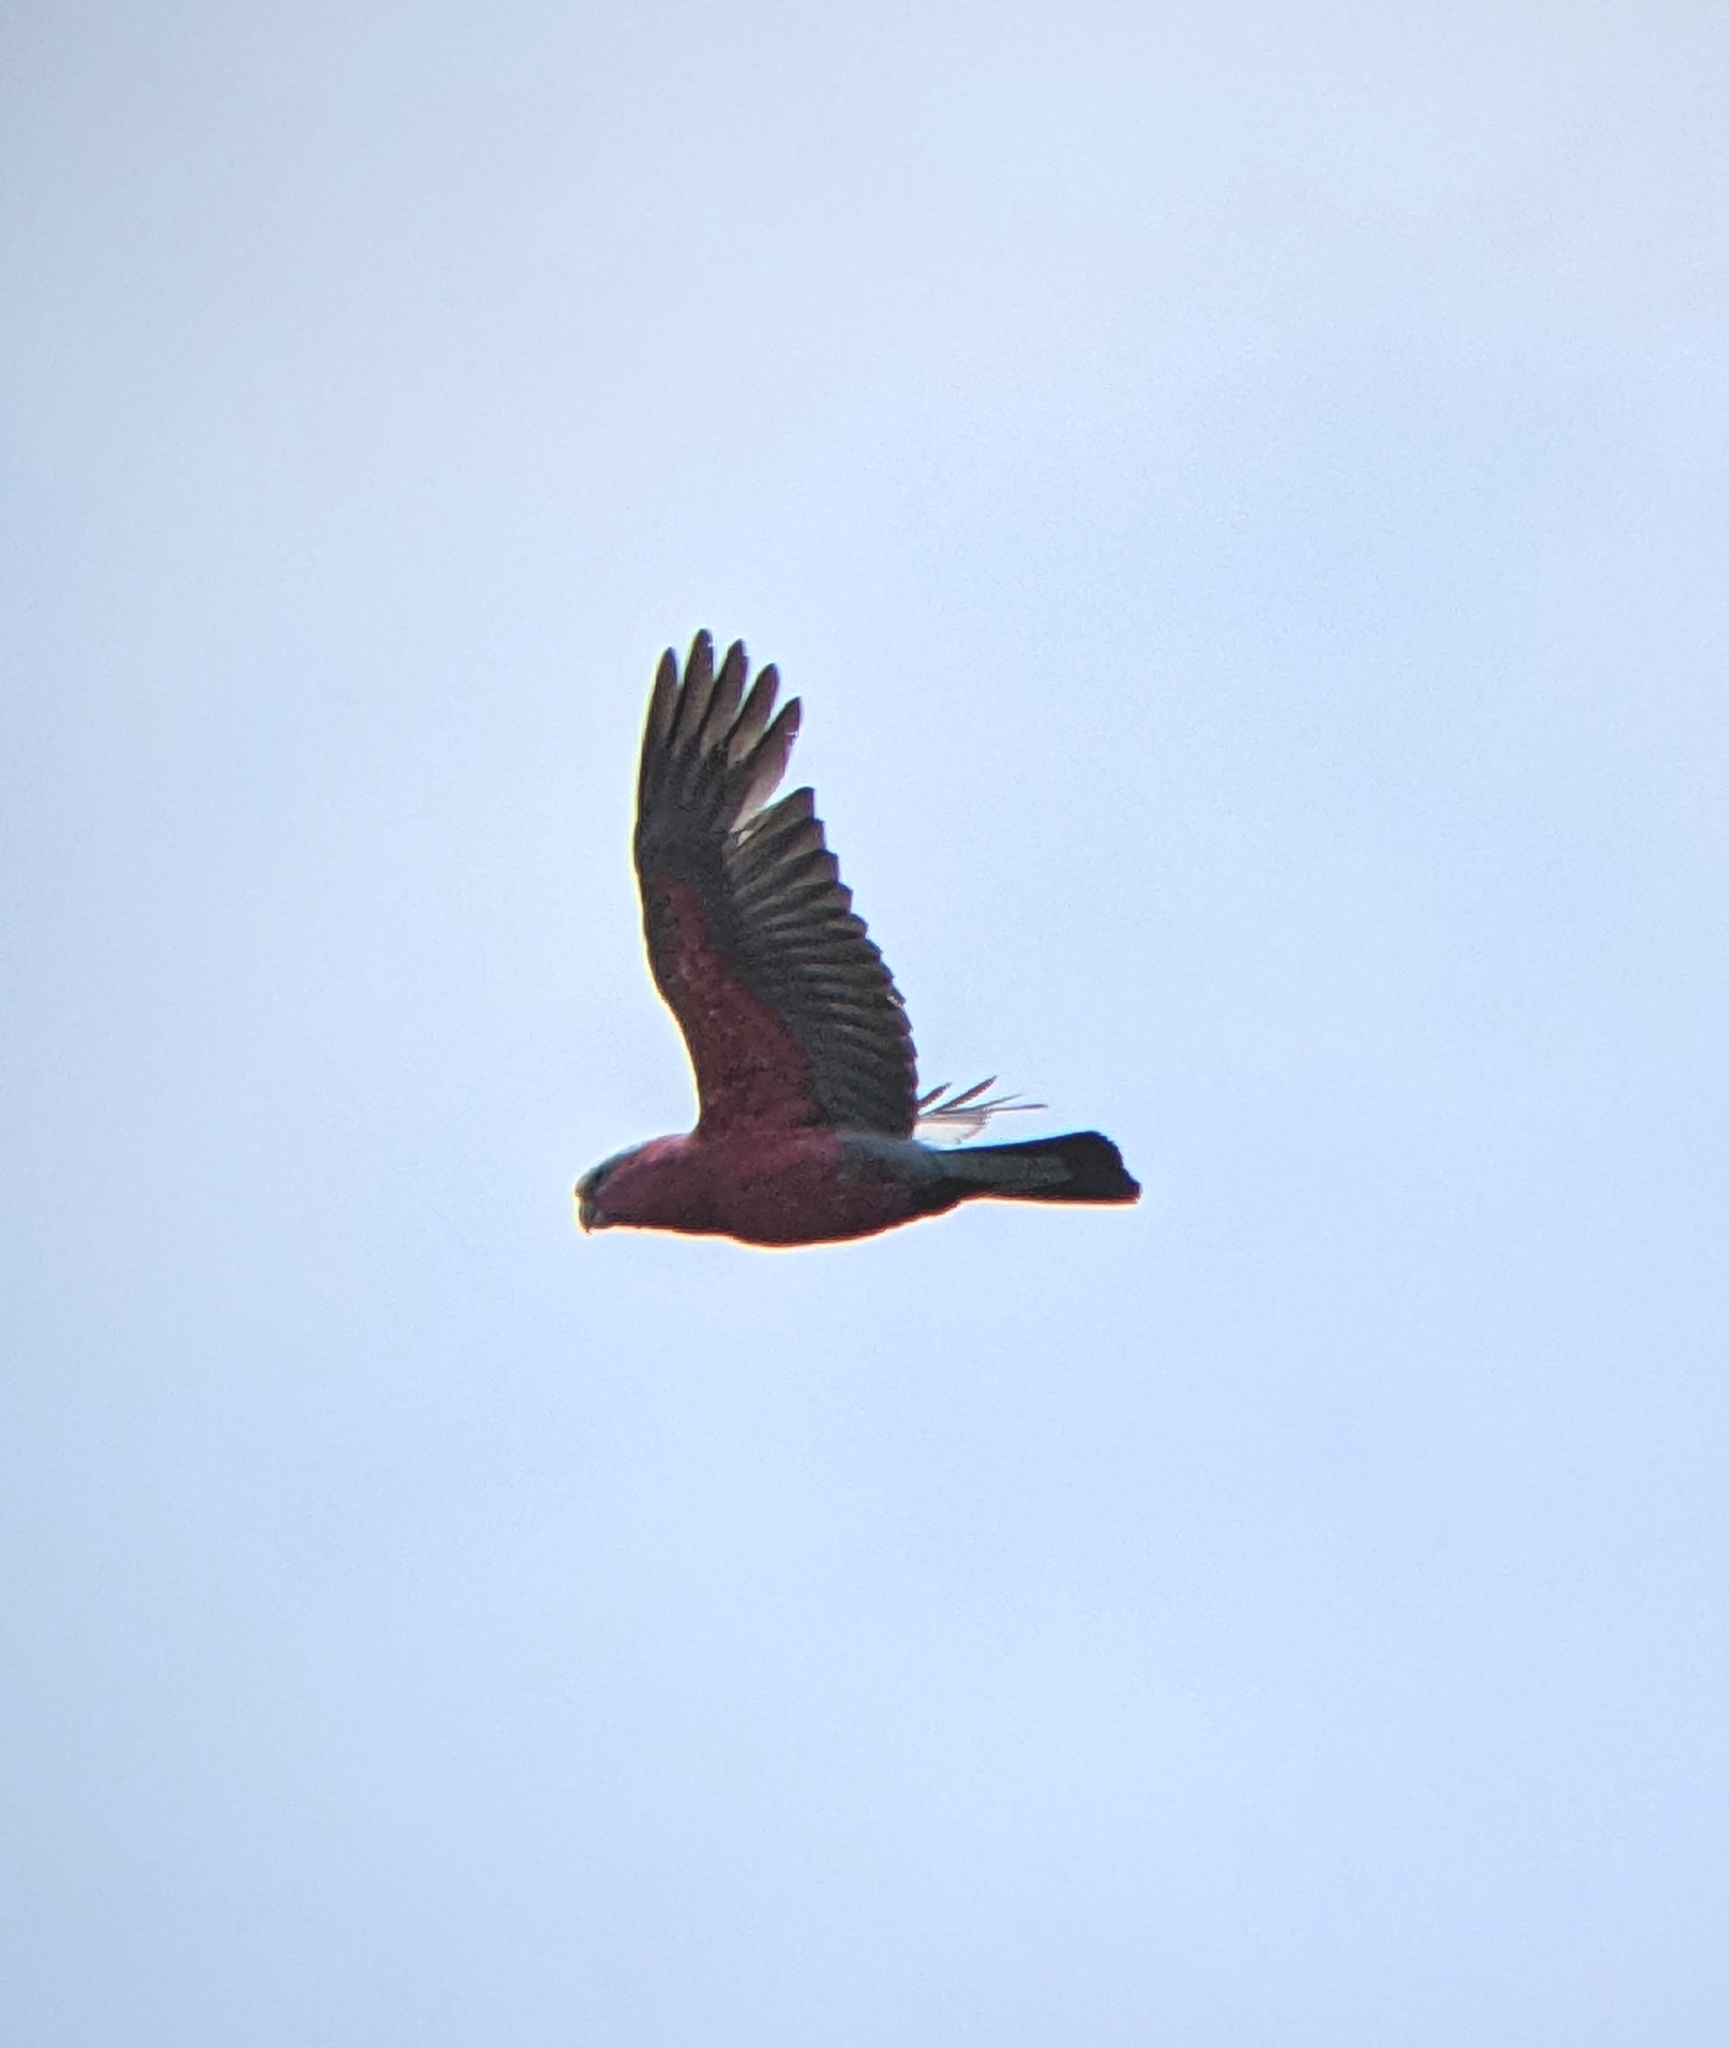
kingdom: Animalia
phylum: Chordata
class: Aves
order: Psittaciformes
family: Psittacidae
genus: Eolophus
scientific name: Eolophus roseicapilla
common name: Galah
